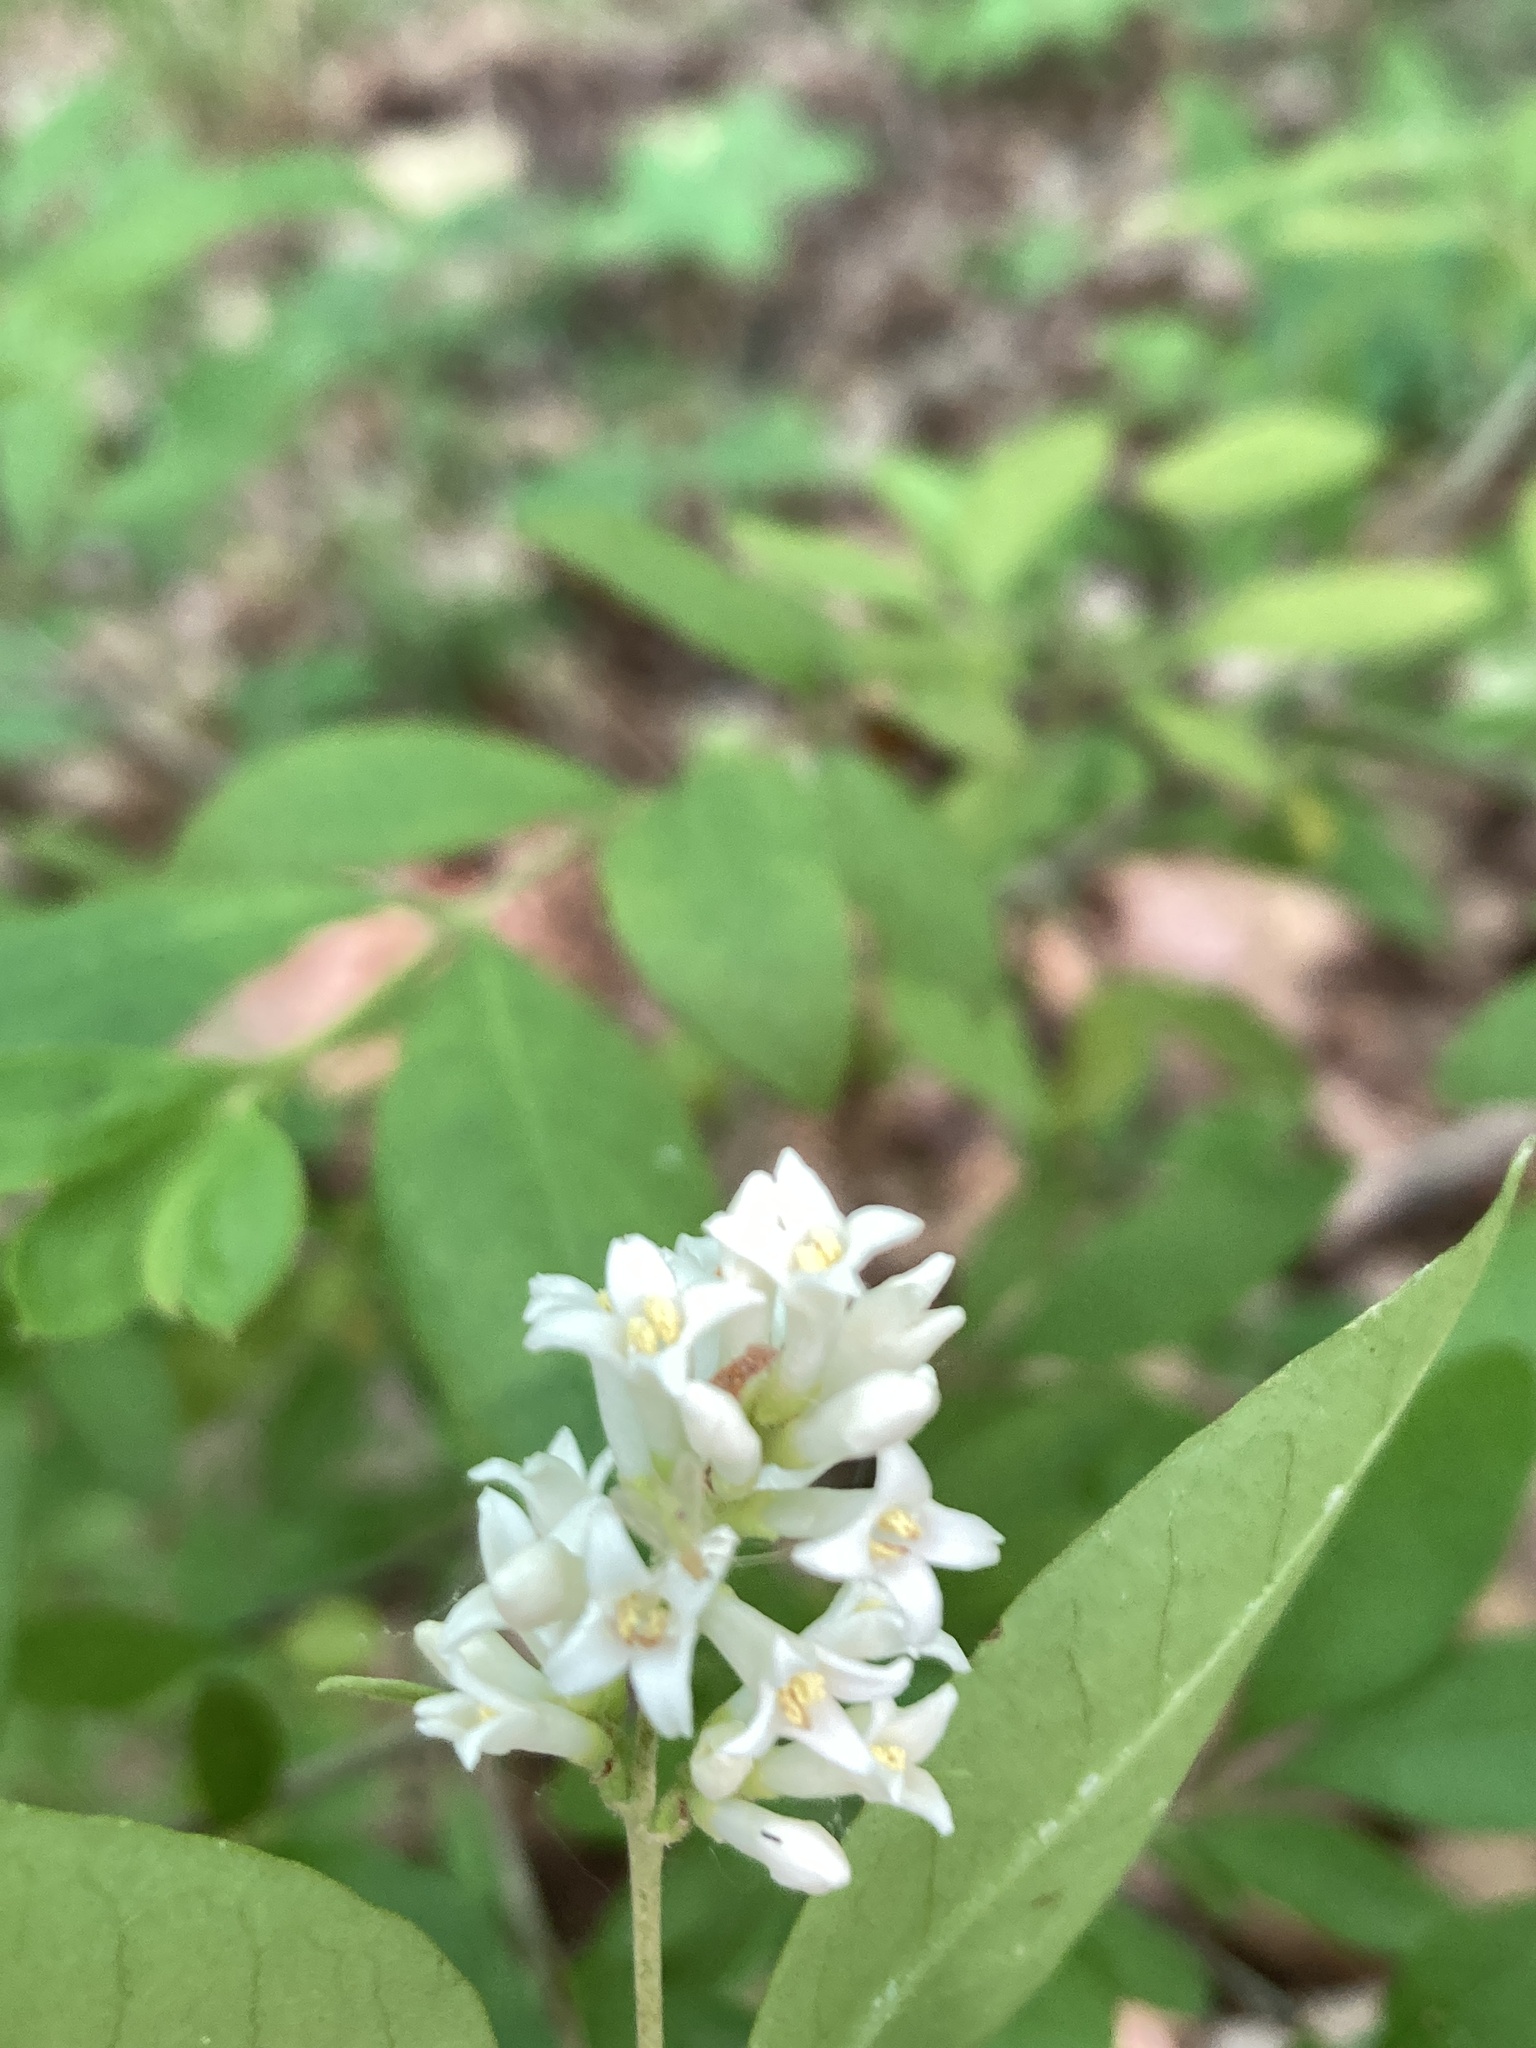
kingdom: Plantae
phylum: Tracheophyta
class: Magnoliopsida
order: Lamiales
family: Oleaceae
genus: Ligustrum
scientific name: Ligustrum obtusifolium
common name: Border privet
